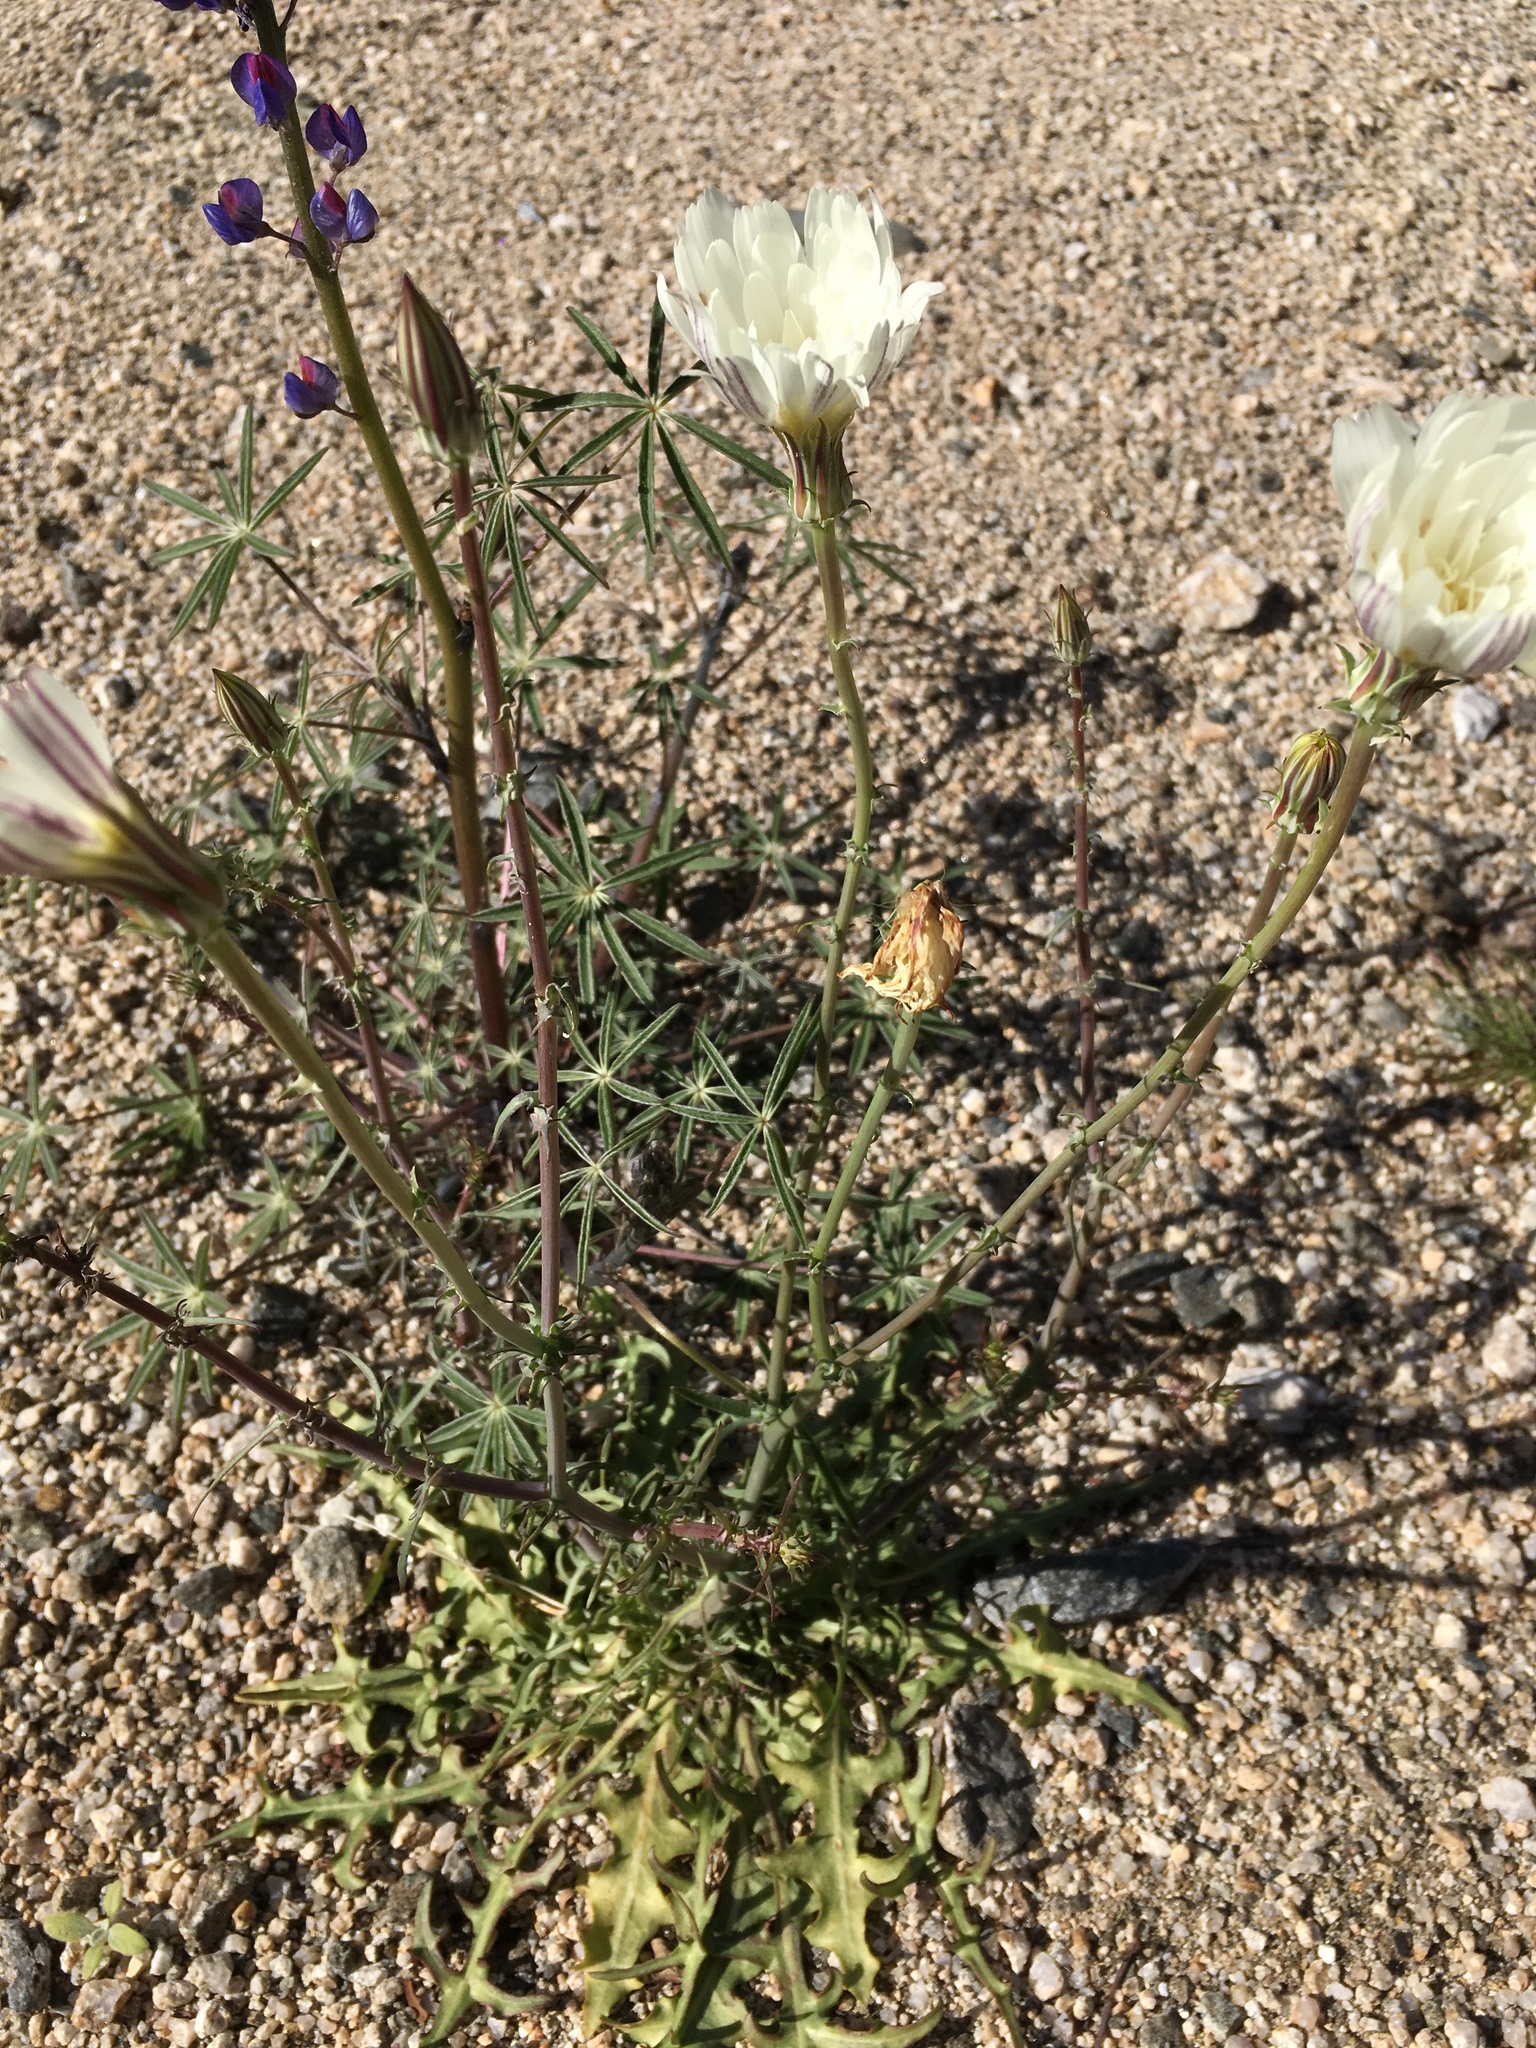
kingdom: Plantae
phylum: Tracheophyta
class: Magnoliopsida
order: Asterales
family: Asteraceae
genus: Rafinesquia
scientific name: Rafinesquia neomexicana
